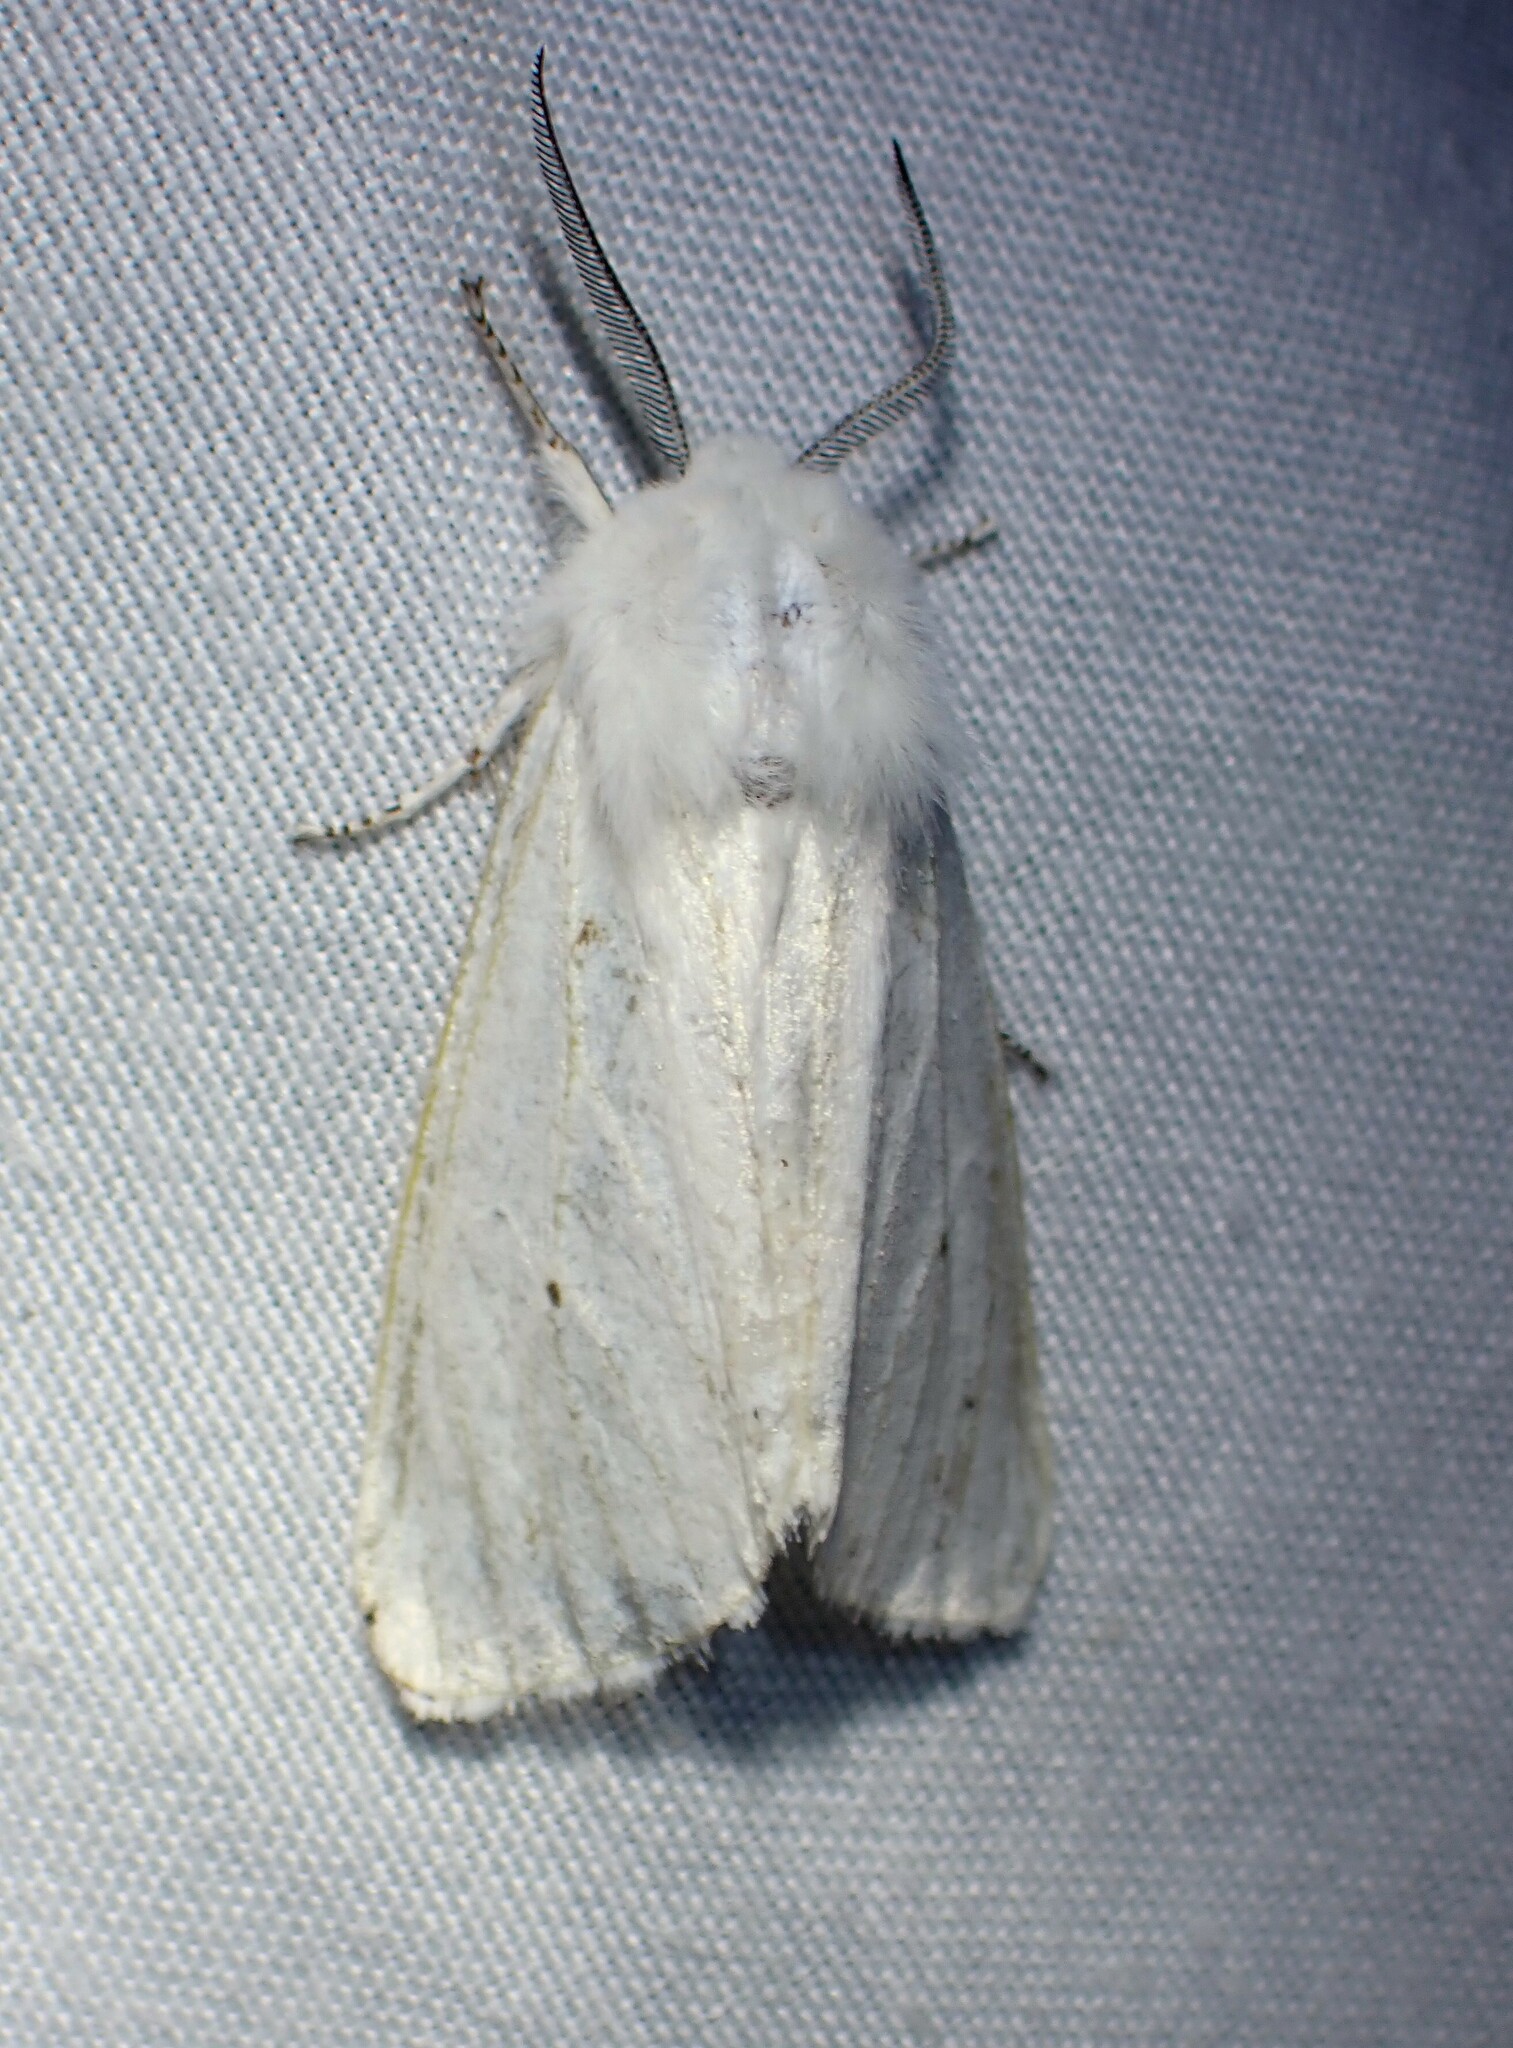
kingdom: Animalia
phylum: Arthropoda
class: Insecta
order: Lepidoptera
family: Erebidae
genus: Spilosoma
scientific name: Spilosoma virginica
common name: Virginia tiger moth
